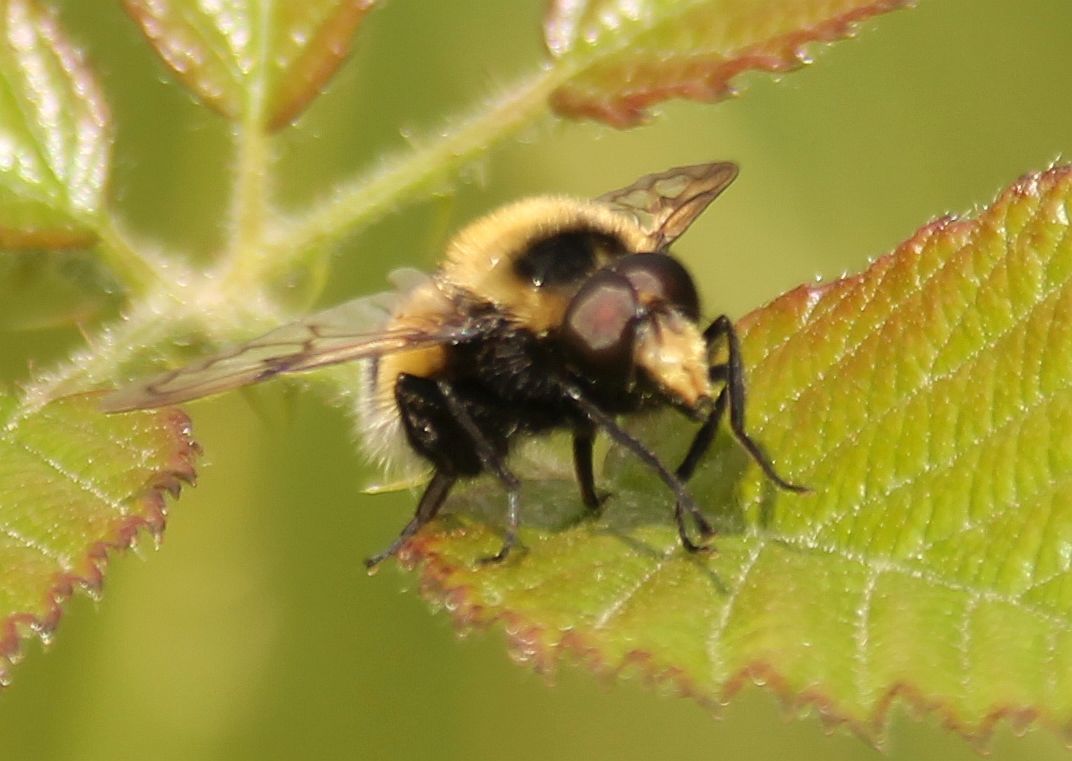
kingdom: Animalia
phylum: Arthropoda
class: Insecta
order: Diptera
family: Syrphidae
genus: Volucella
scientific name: Volucella bombylans
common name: Bumble bee hover fly
